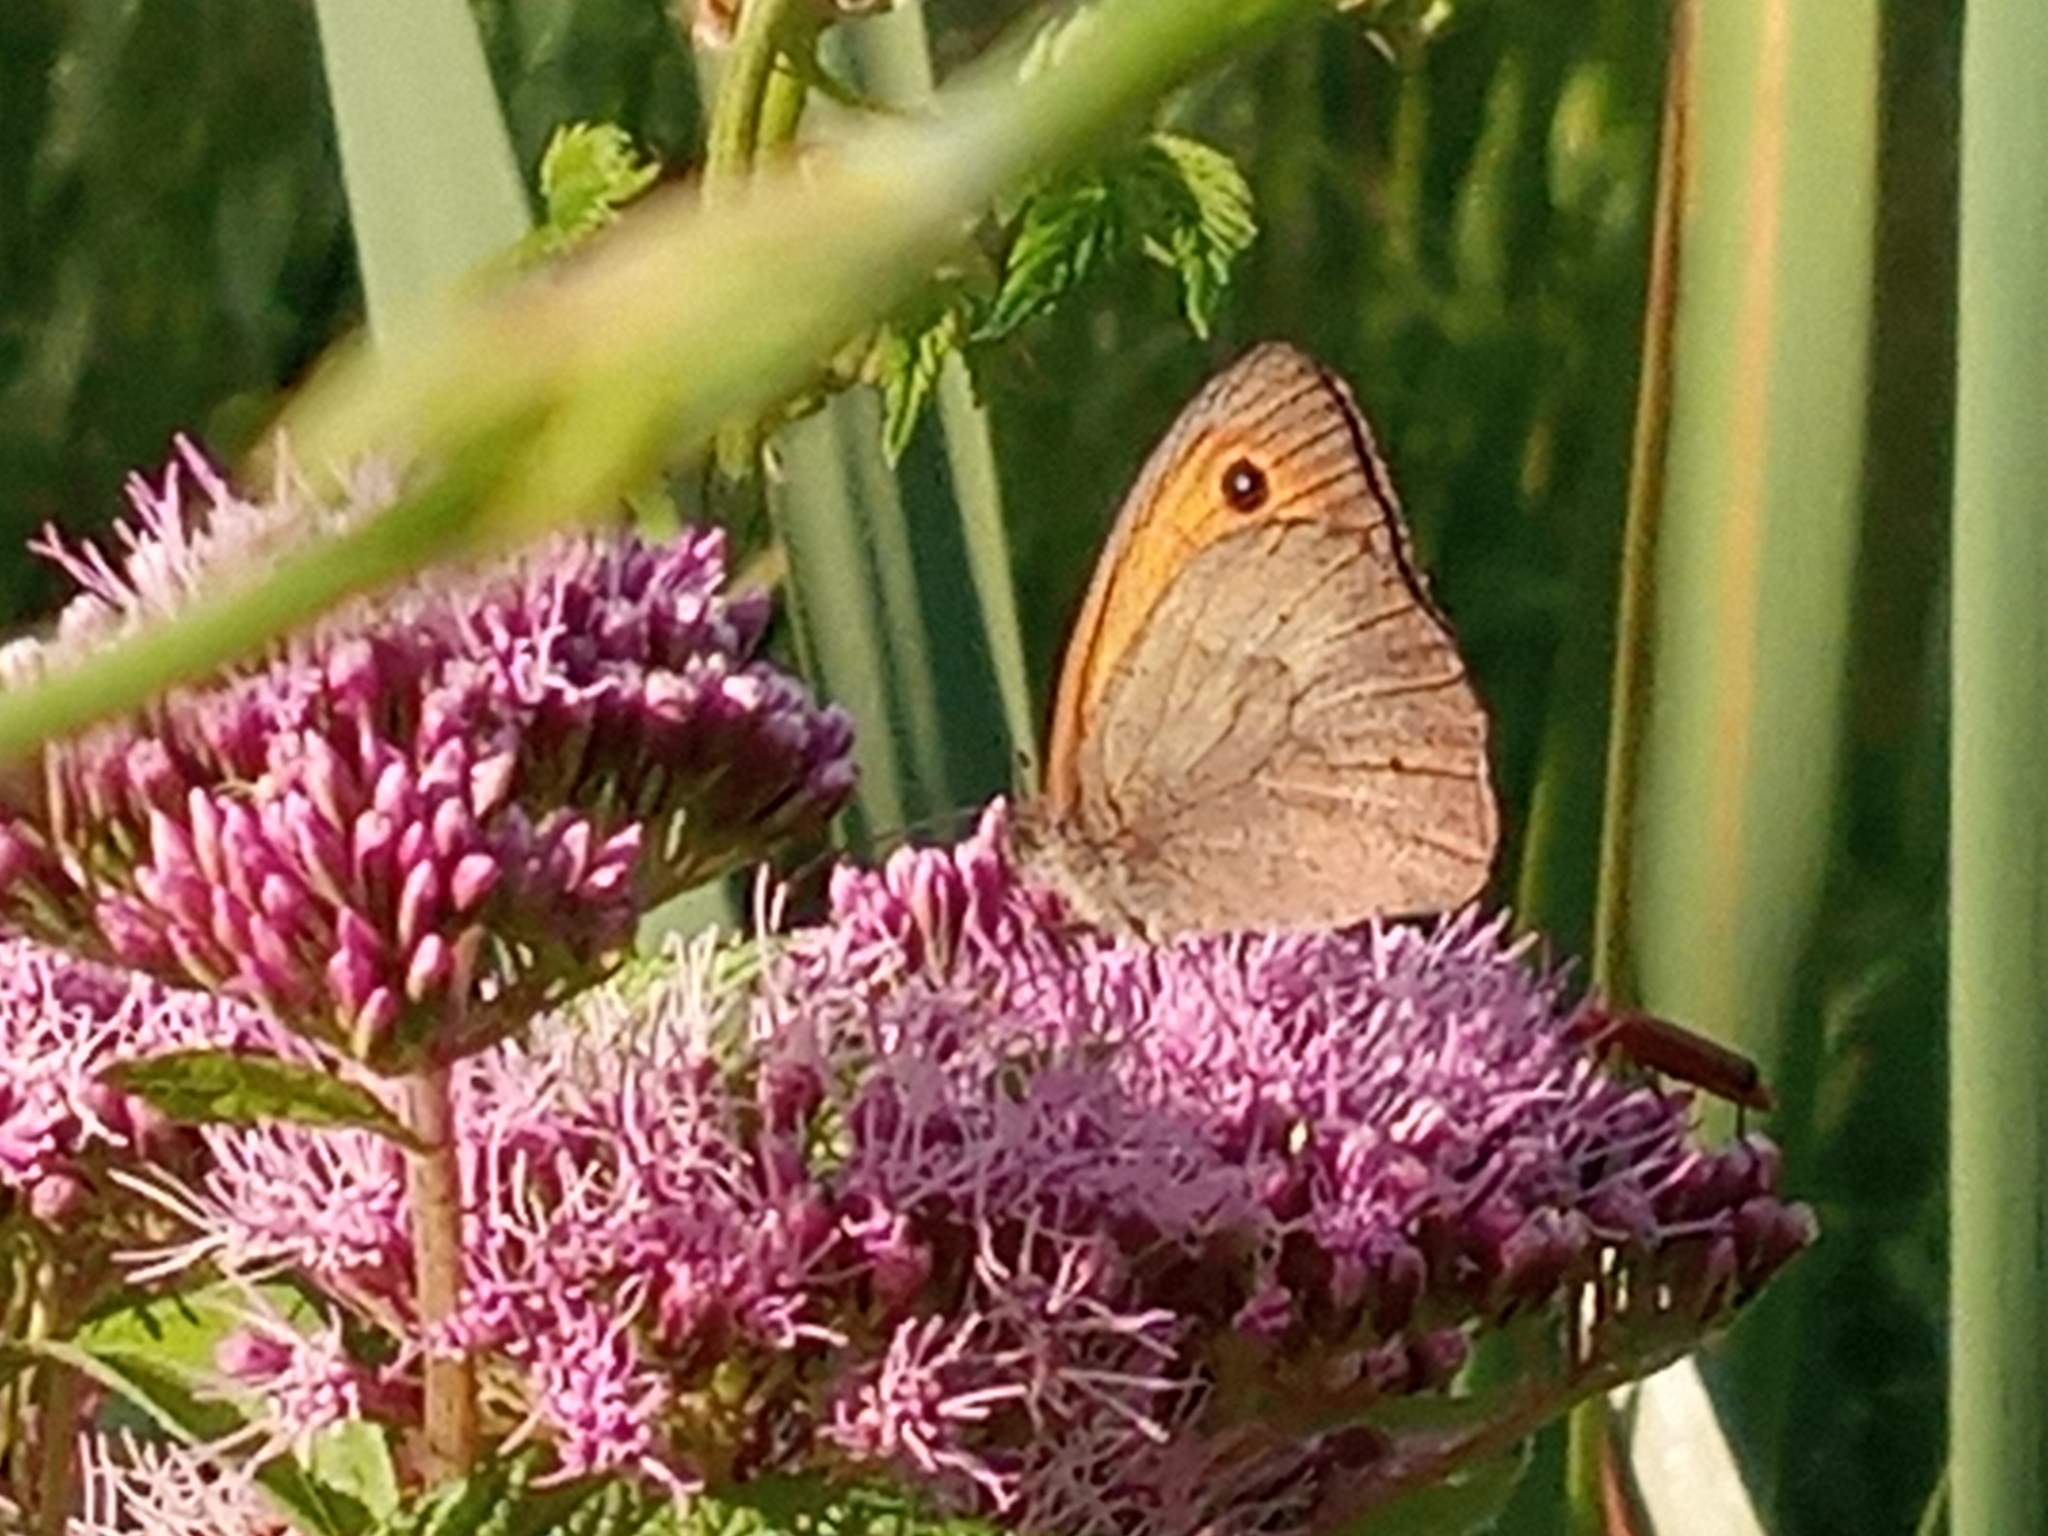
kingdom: Animalia
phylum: Arthropoda
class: Insecta
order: Lepidoptera
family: Nymphalidae
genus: Maniola
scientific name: Maniola jurtina
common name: Meadow brown
